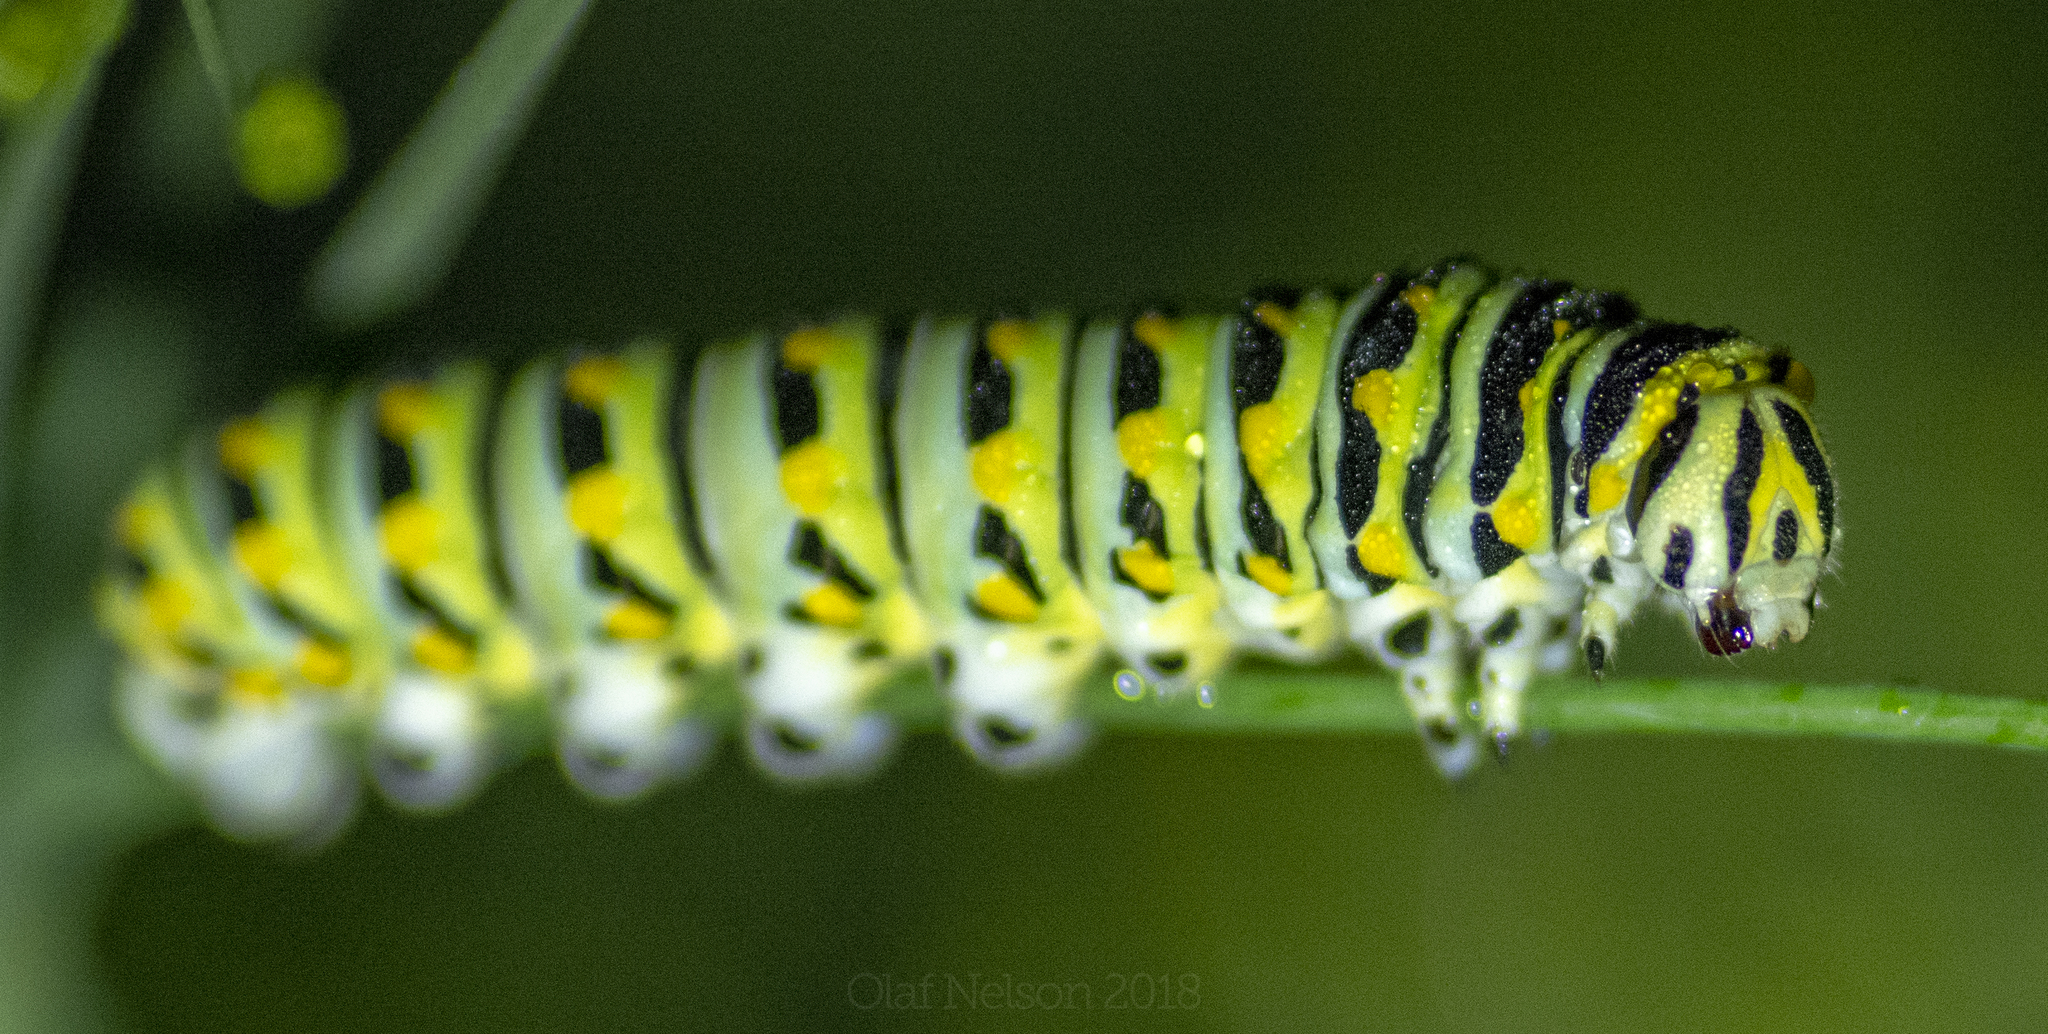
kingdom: Animalia
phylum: Arthropoda
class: Insecta
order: Lepidoptera
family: Papilionidae
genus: Papilio
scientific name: Papilio polyxenes
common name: Black swallowtail
